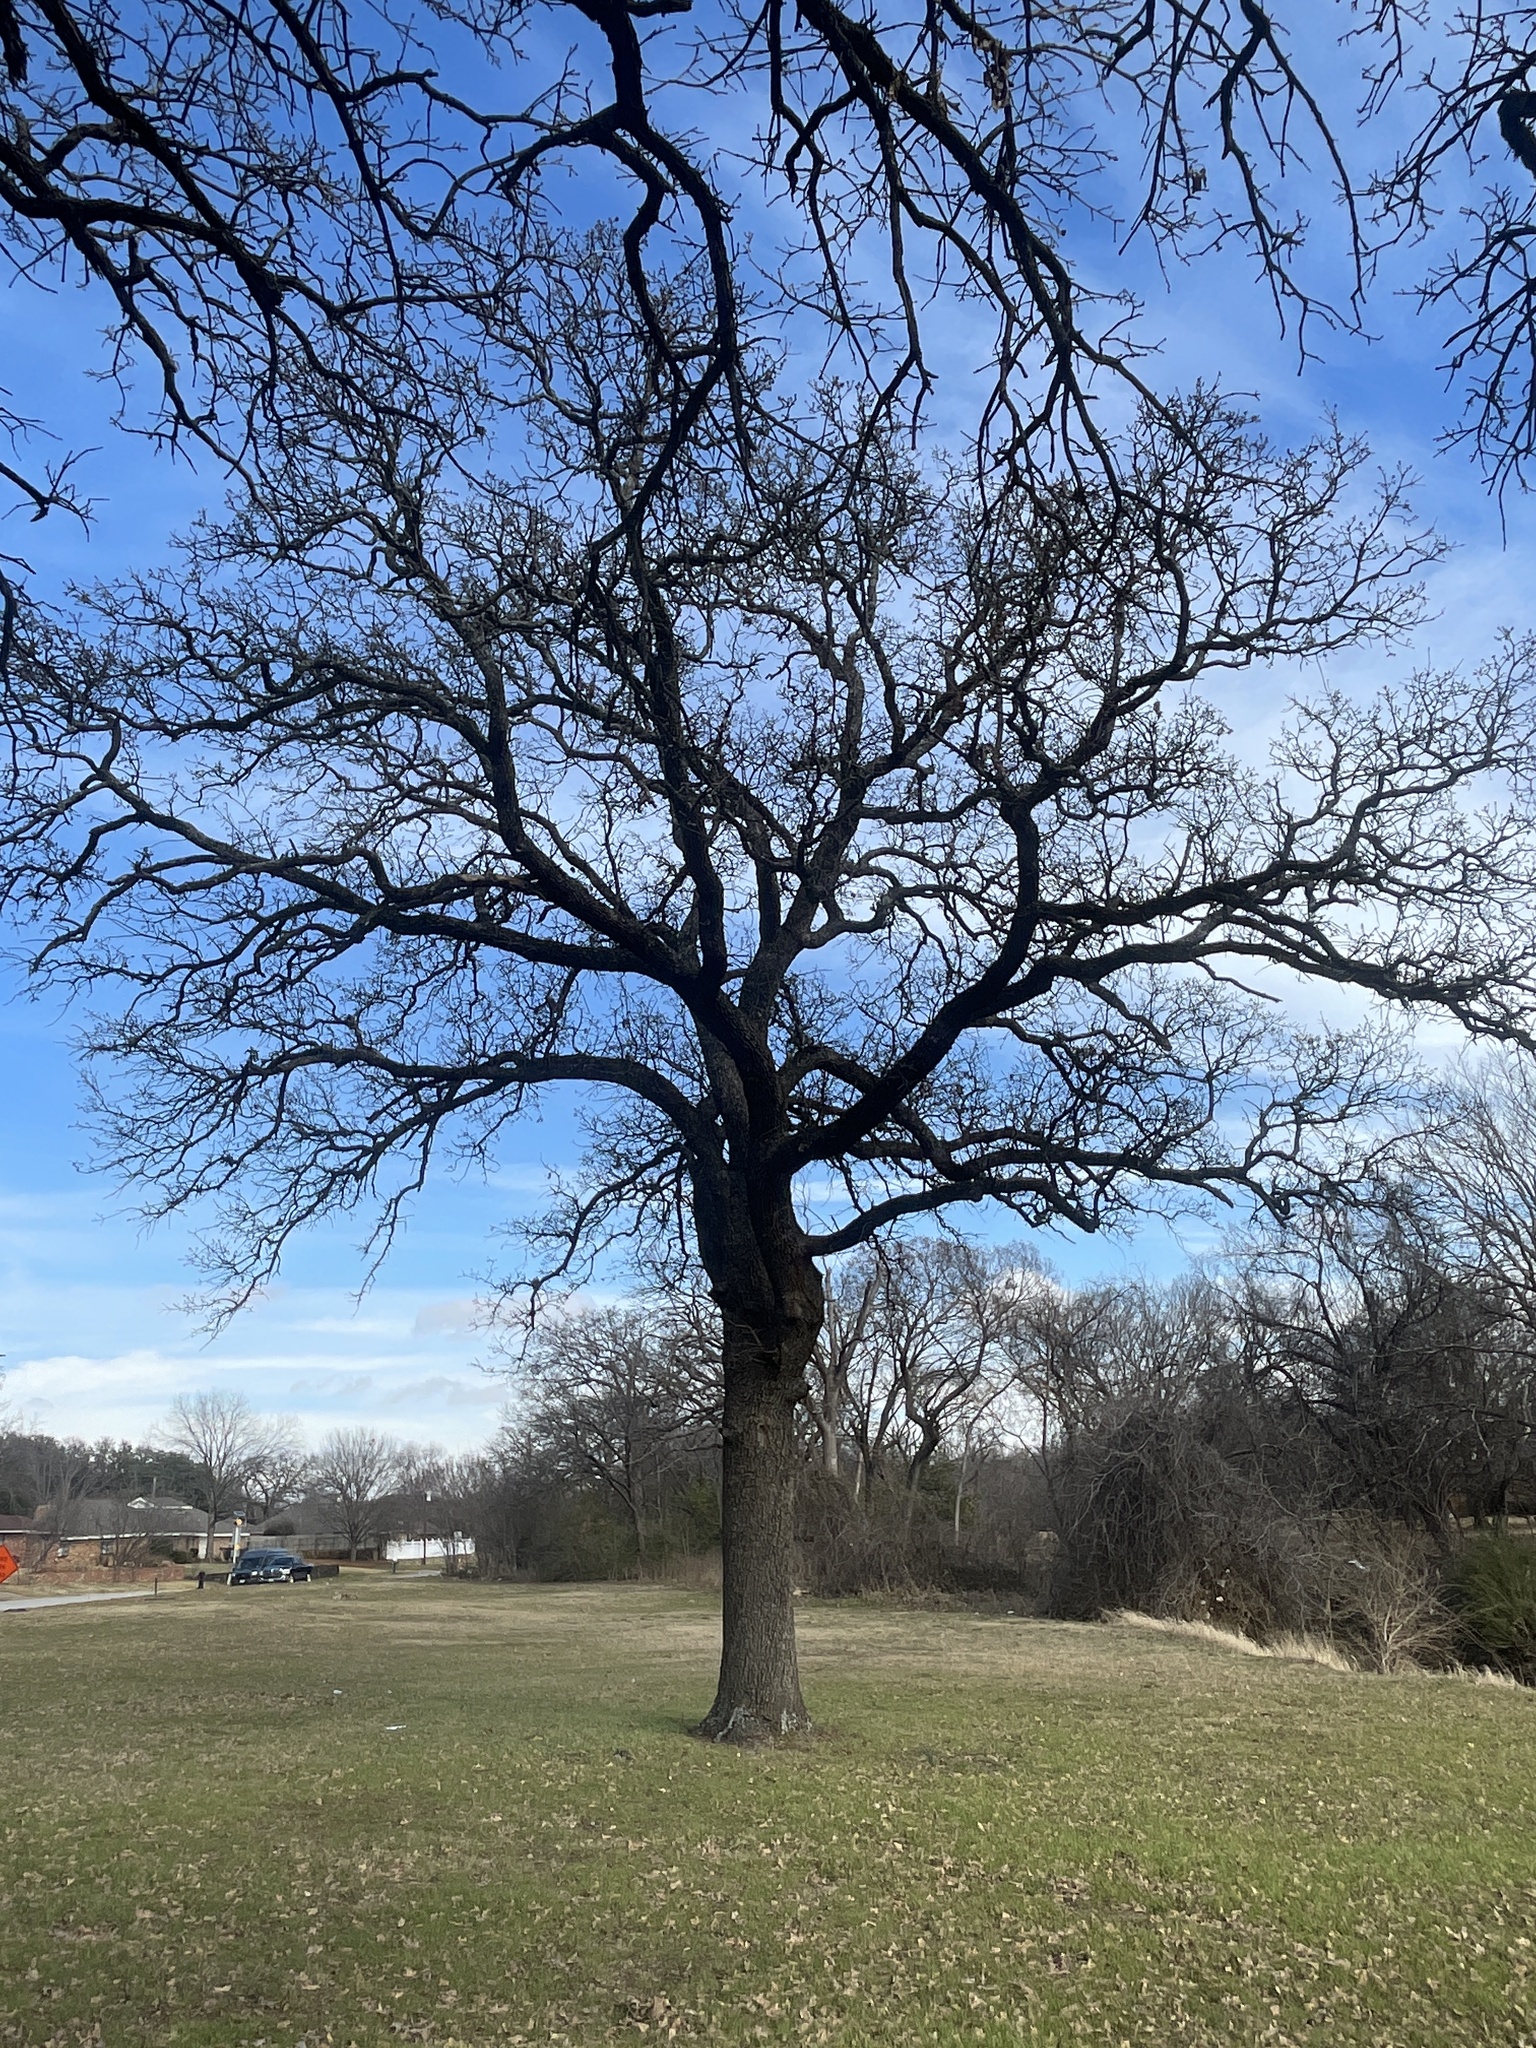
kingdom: Plantae
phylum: Tracheophyta
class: Magnoliopsida
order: Fagales
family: Fagaceae
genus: Quercus
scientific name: Quercus stellata
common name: Post oak
